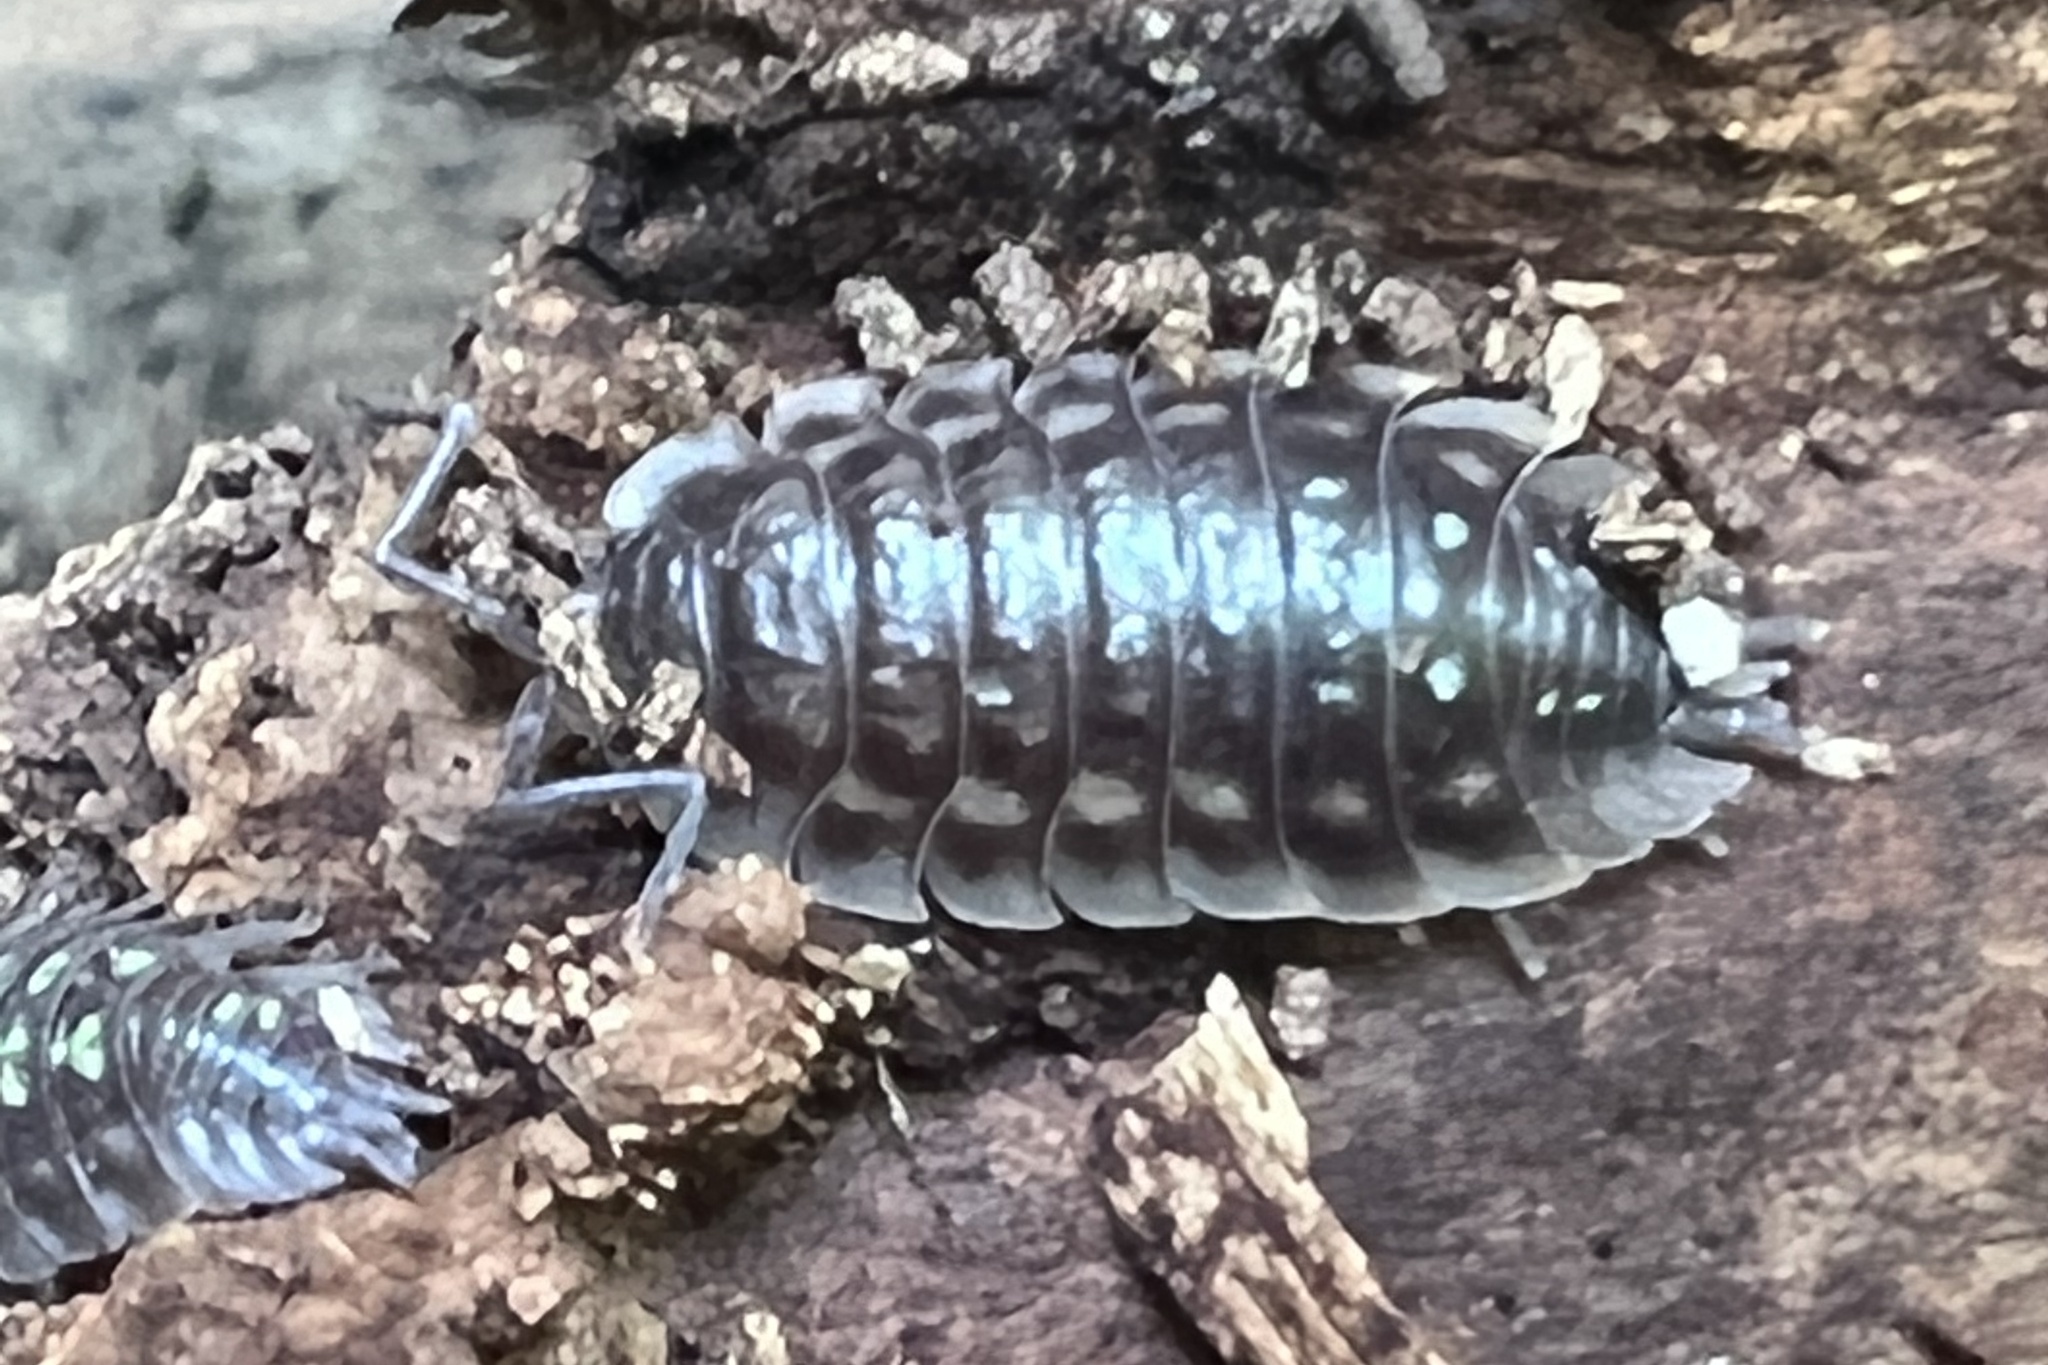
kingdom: Animalia
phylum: Arthropoda
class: Malacostraca
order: Isopoda
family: Oniscidae
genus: Oniscus
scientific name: Oniscus asellus
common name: Common shiny woodlouse
